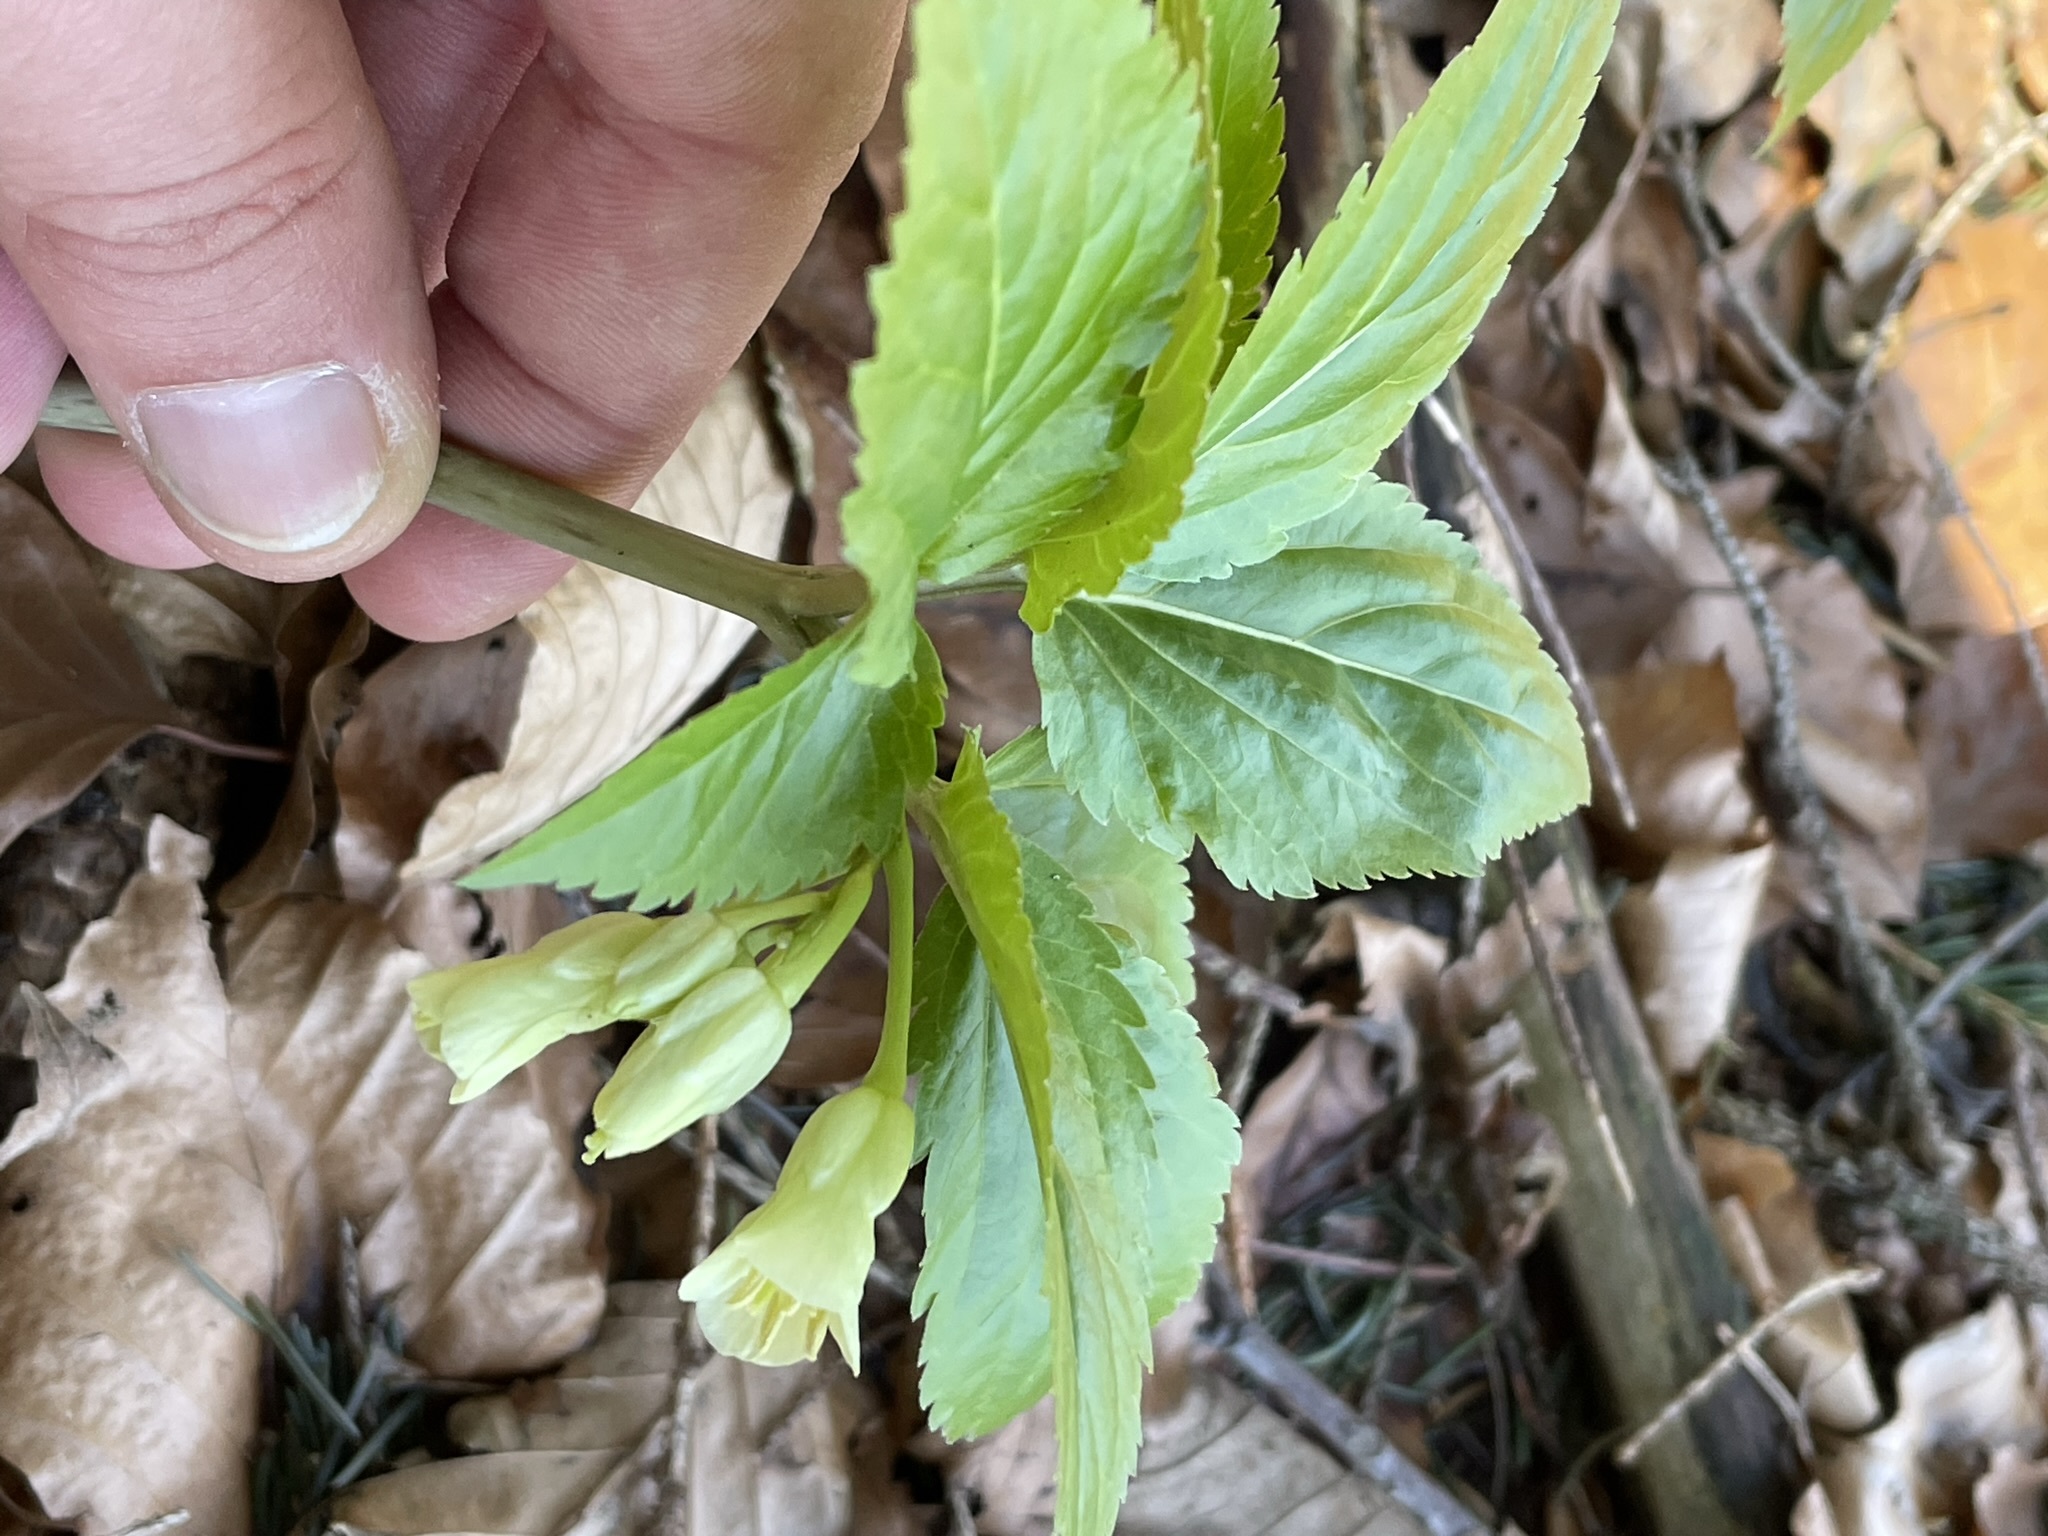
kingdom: Plantae
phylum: Tracheophyta
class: Magnoliopsida
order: Brassicales
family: Brassicaceae
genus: Cardamine
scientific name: Cardamine enneaphyllos
